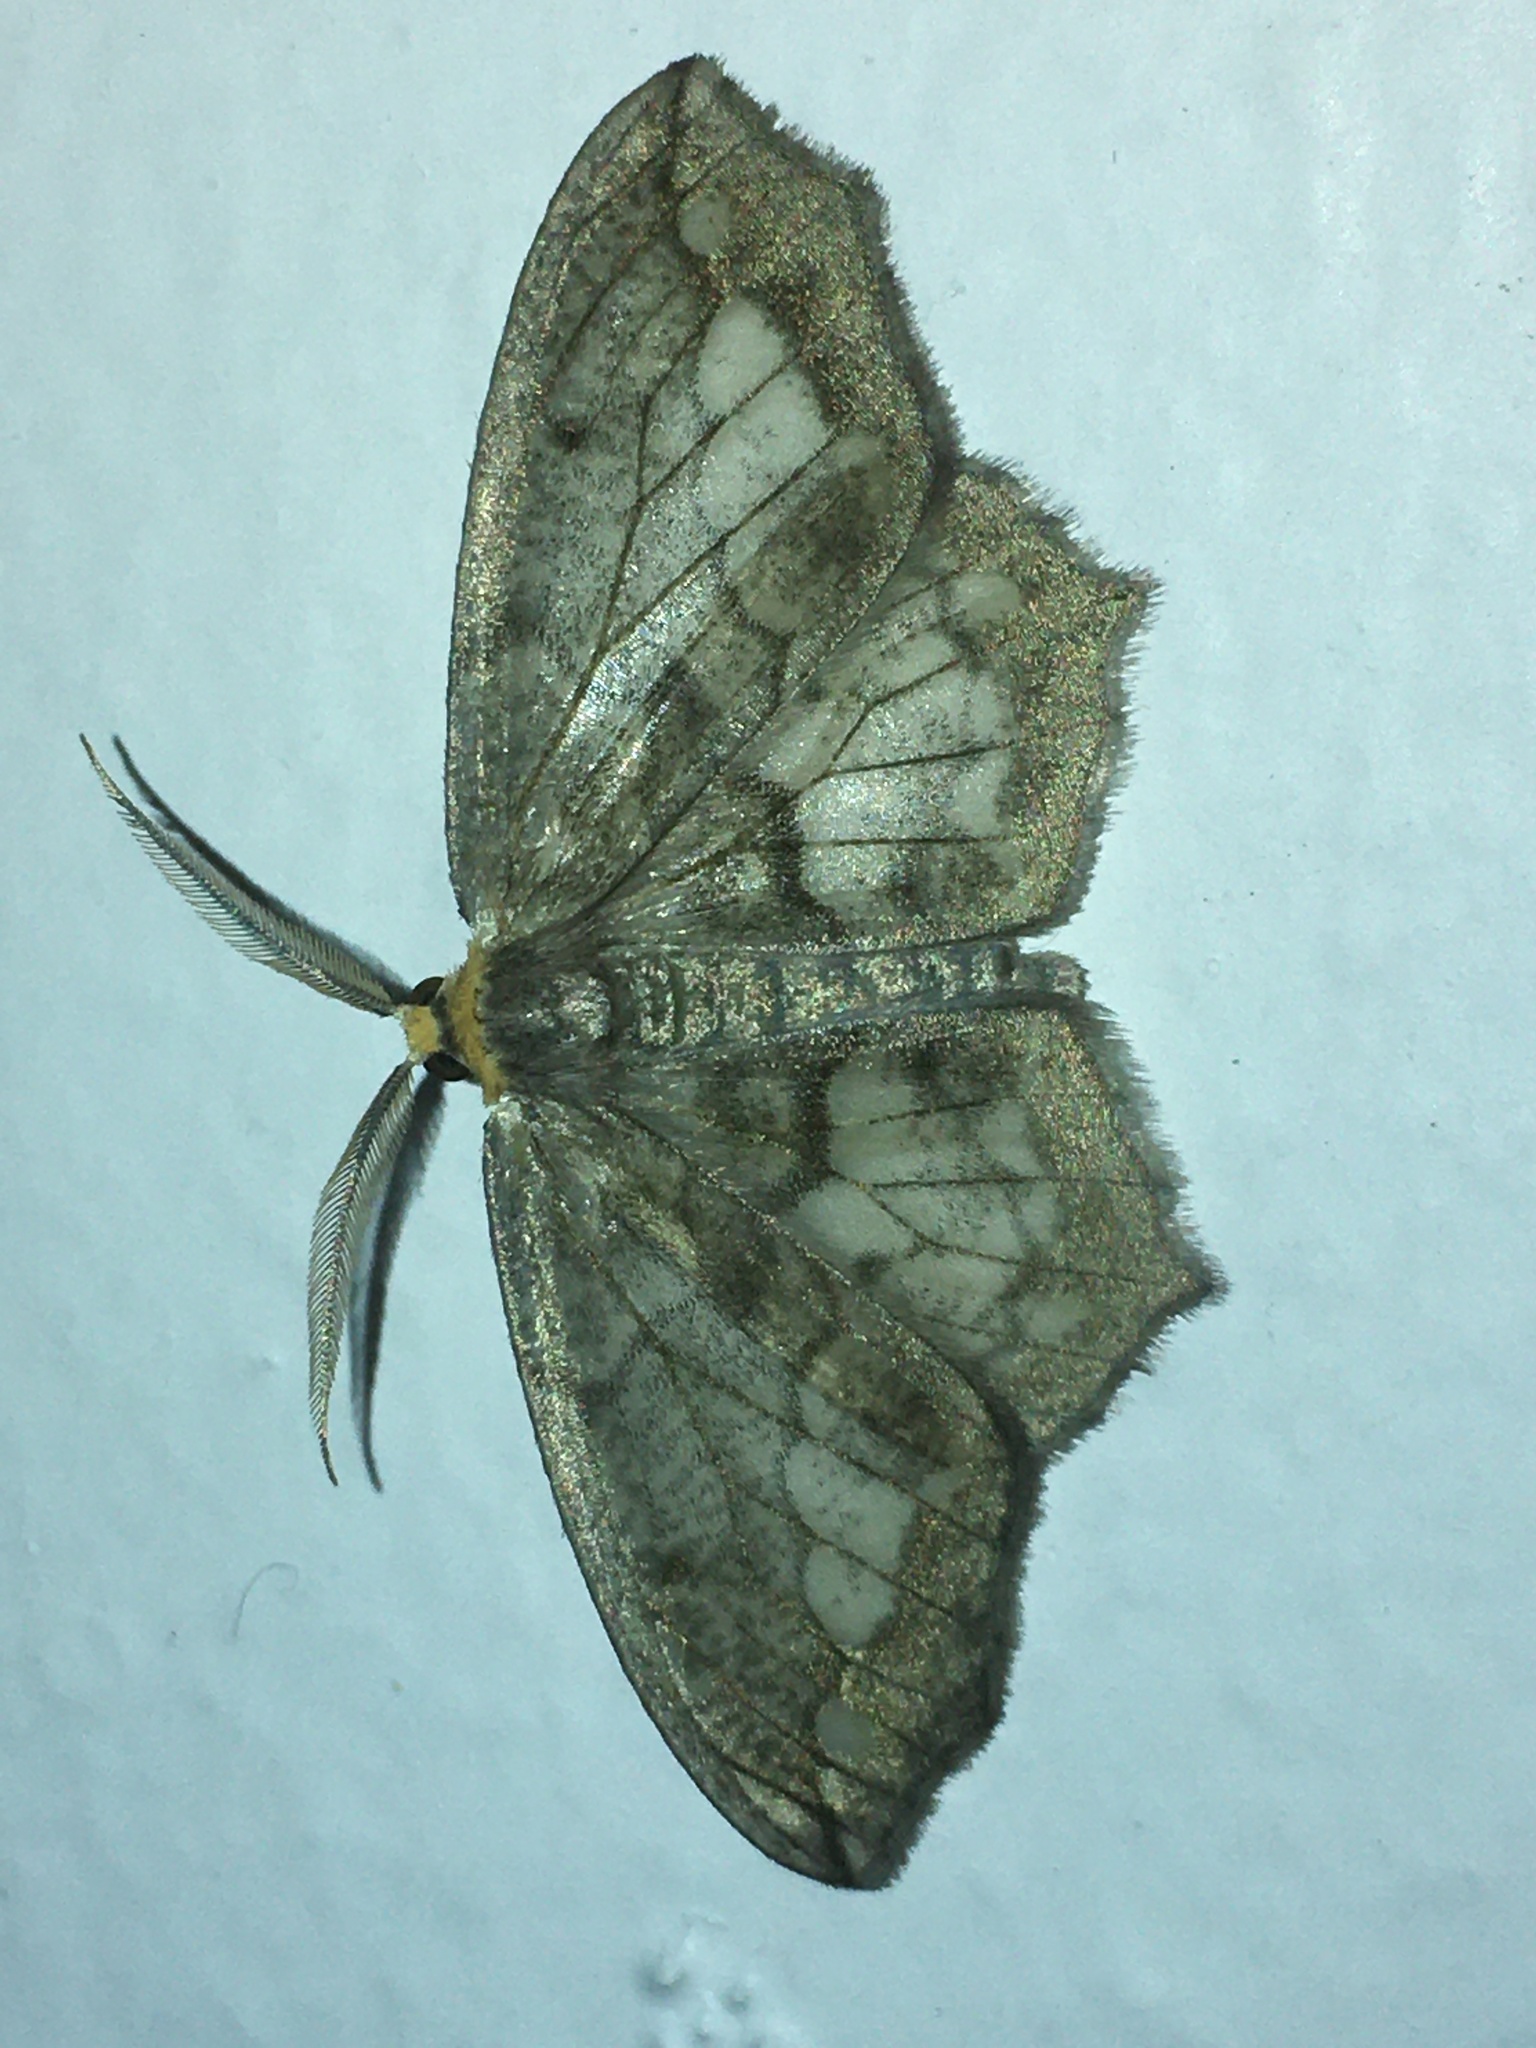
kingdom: Animalia
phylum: Arthropoda
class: Insecta
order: Lepidoptera
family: Geometridae
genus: Hydatoscia
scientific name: Hydatoscia ategua
